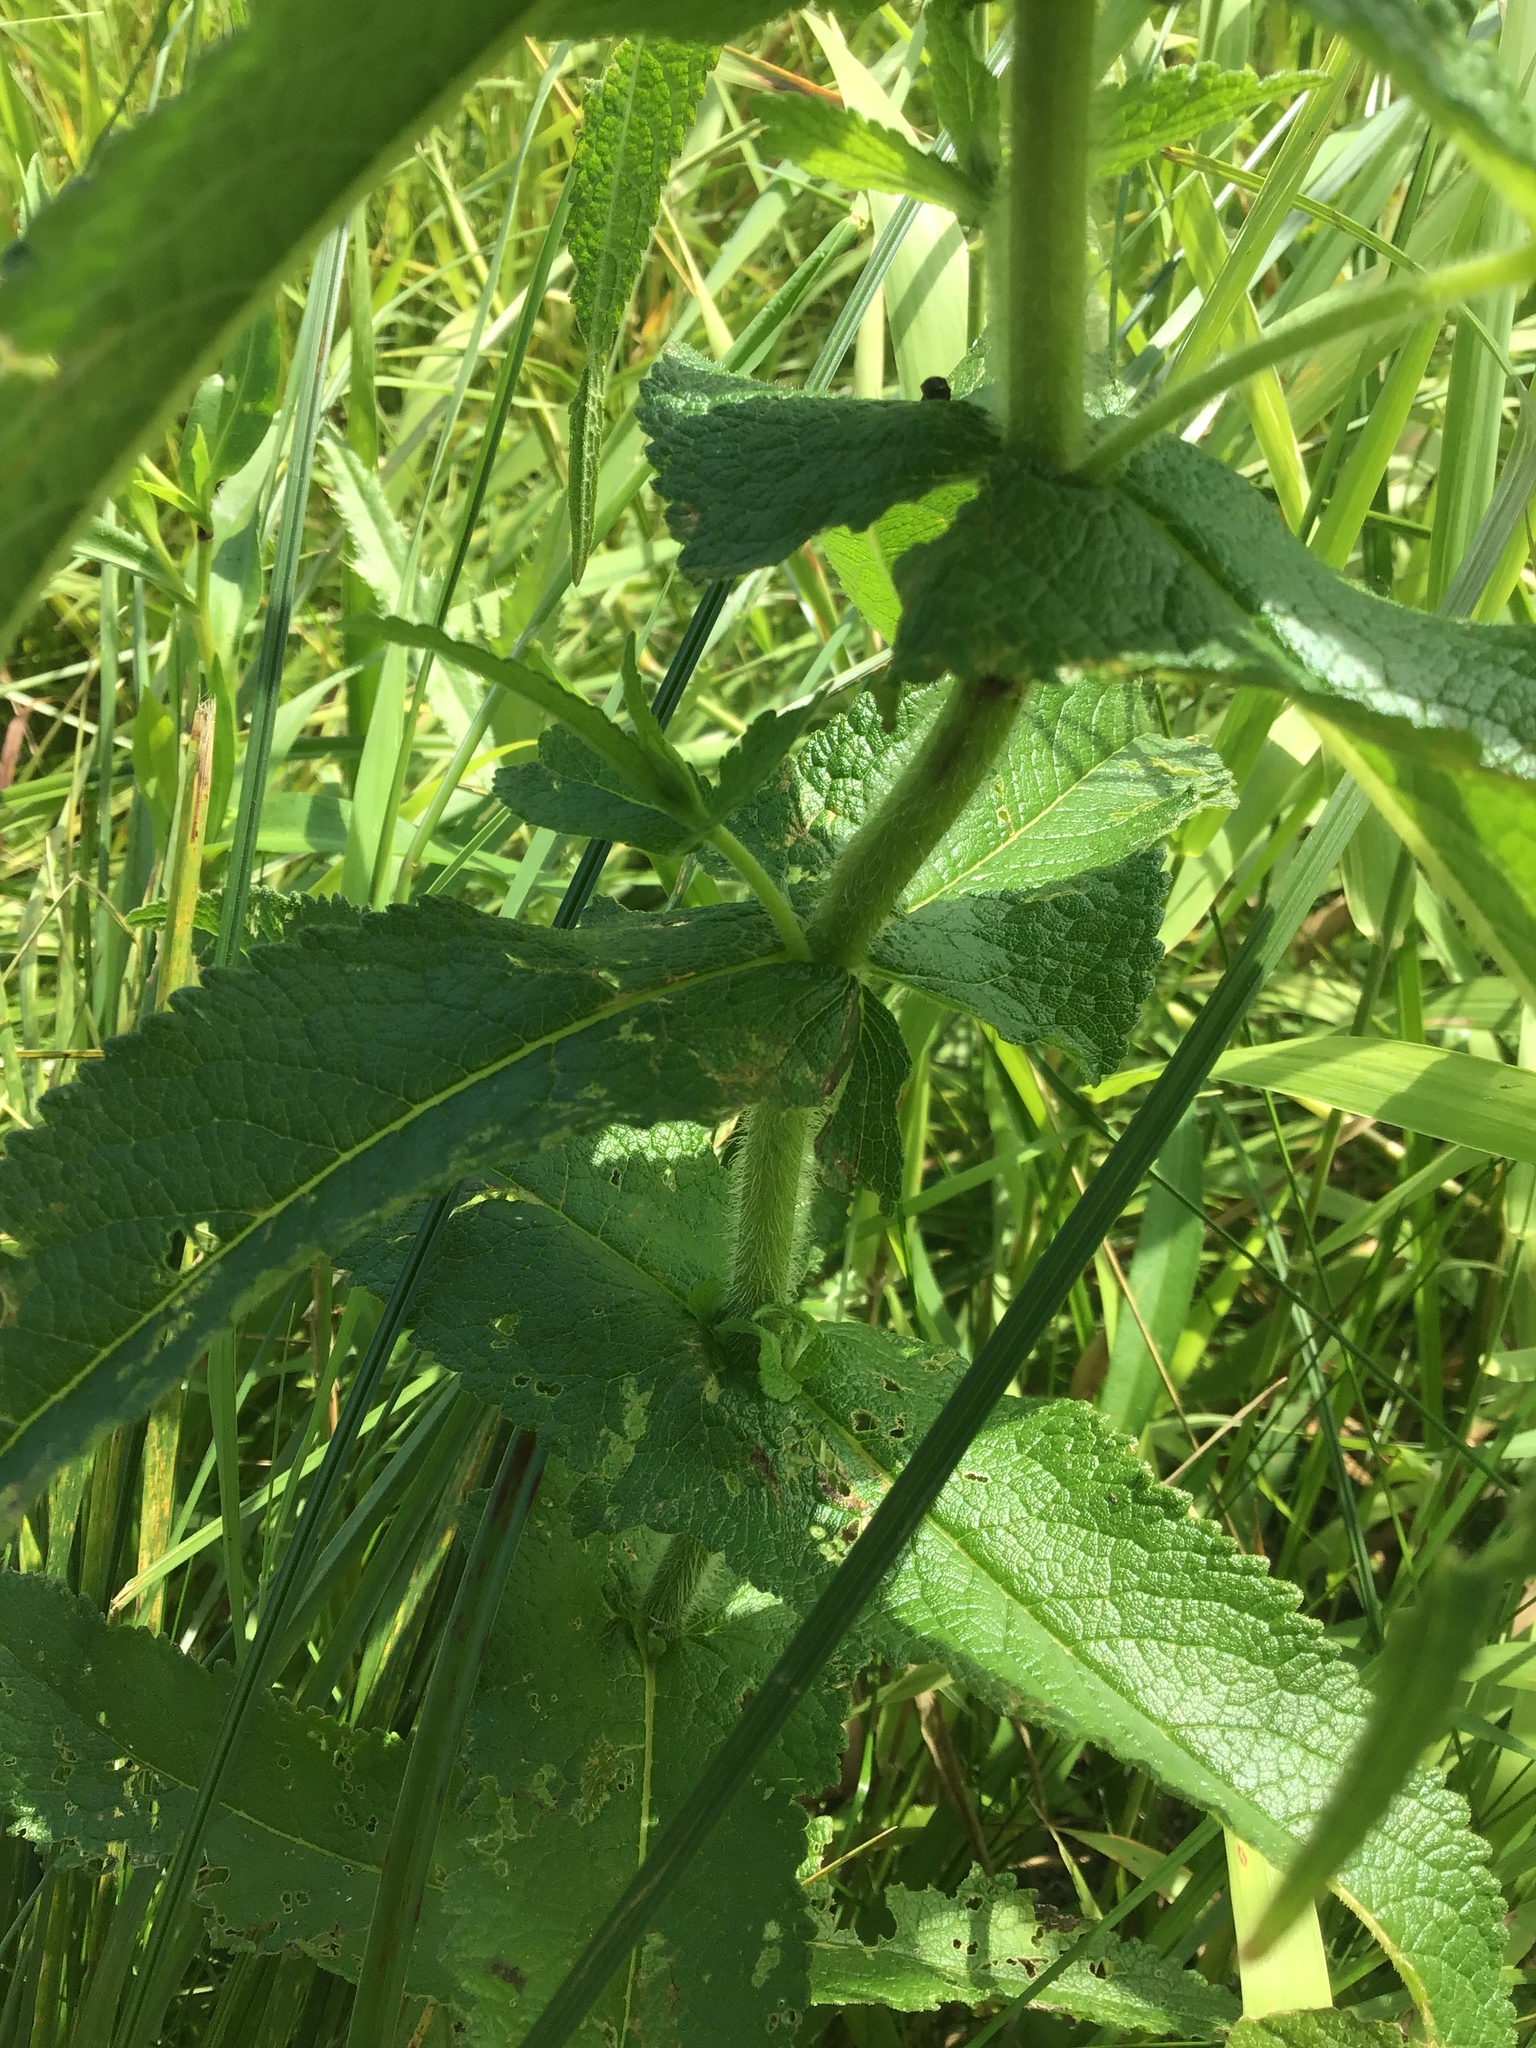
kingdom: Plantae
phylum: Tracheophyta
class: Magnoliopsida
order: Asterales
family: Asteraceae
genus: Eupatorium
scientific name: Eupatorium perfoliatum
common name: Boneset
